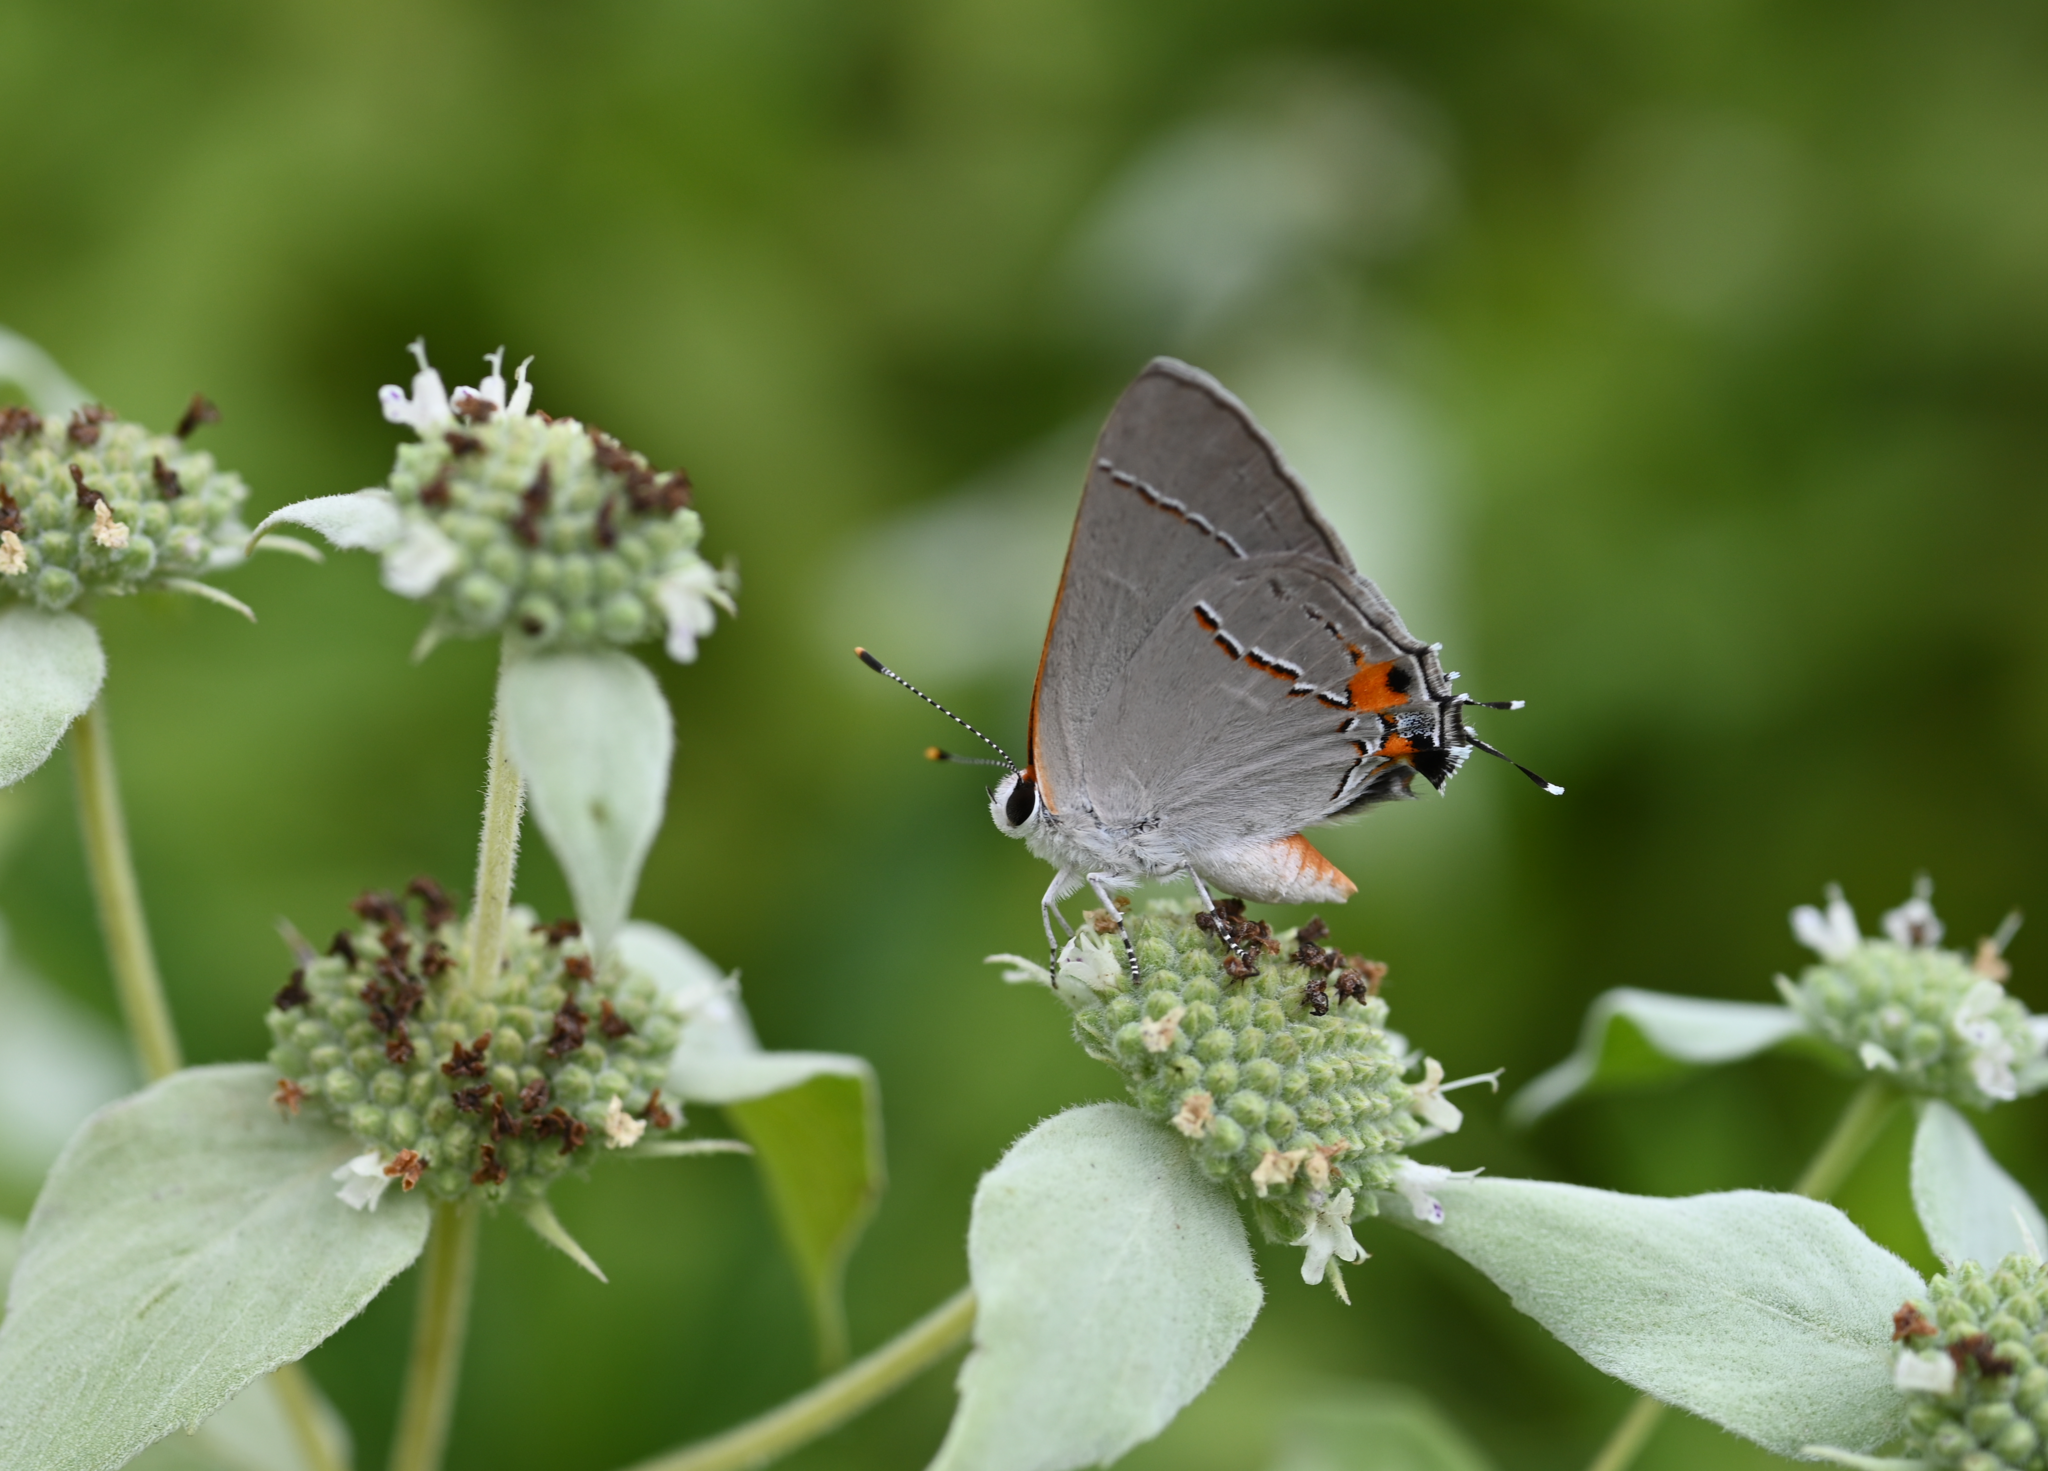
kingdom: Animalia
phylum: Arthropoda
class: Insecta
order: Lepidoptera
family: Lycaenidae
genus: Strymon
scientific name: Strymon melinus
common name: Gray hairstreak
